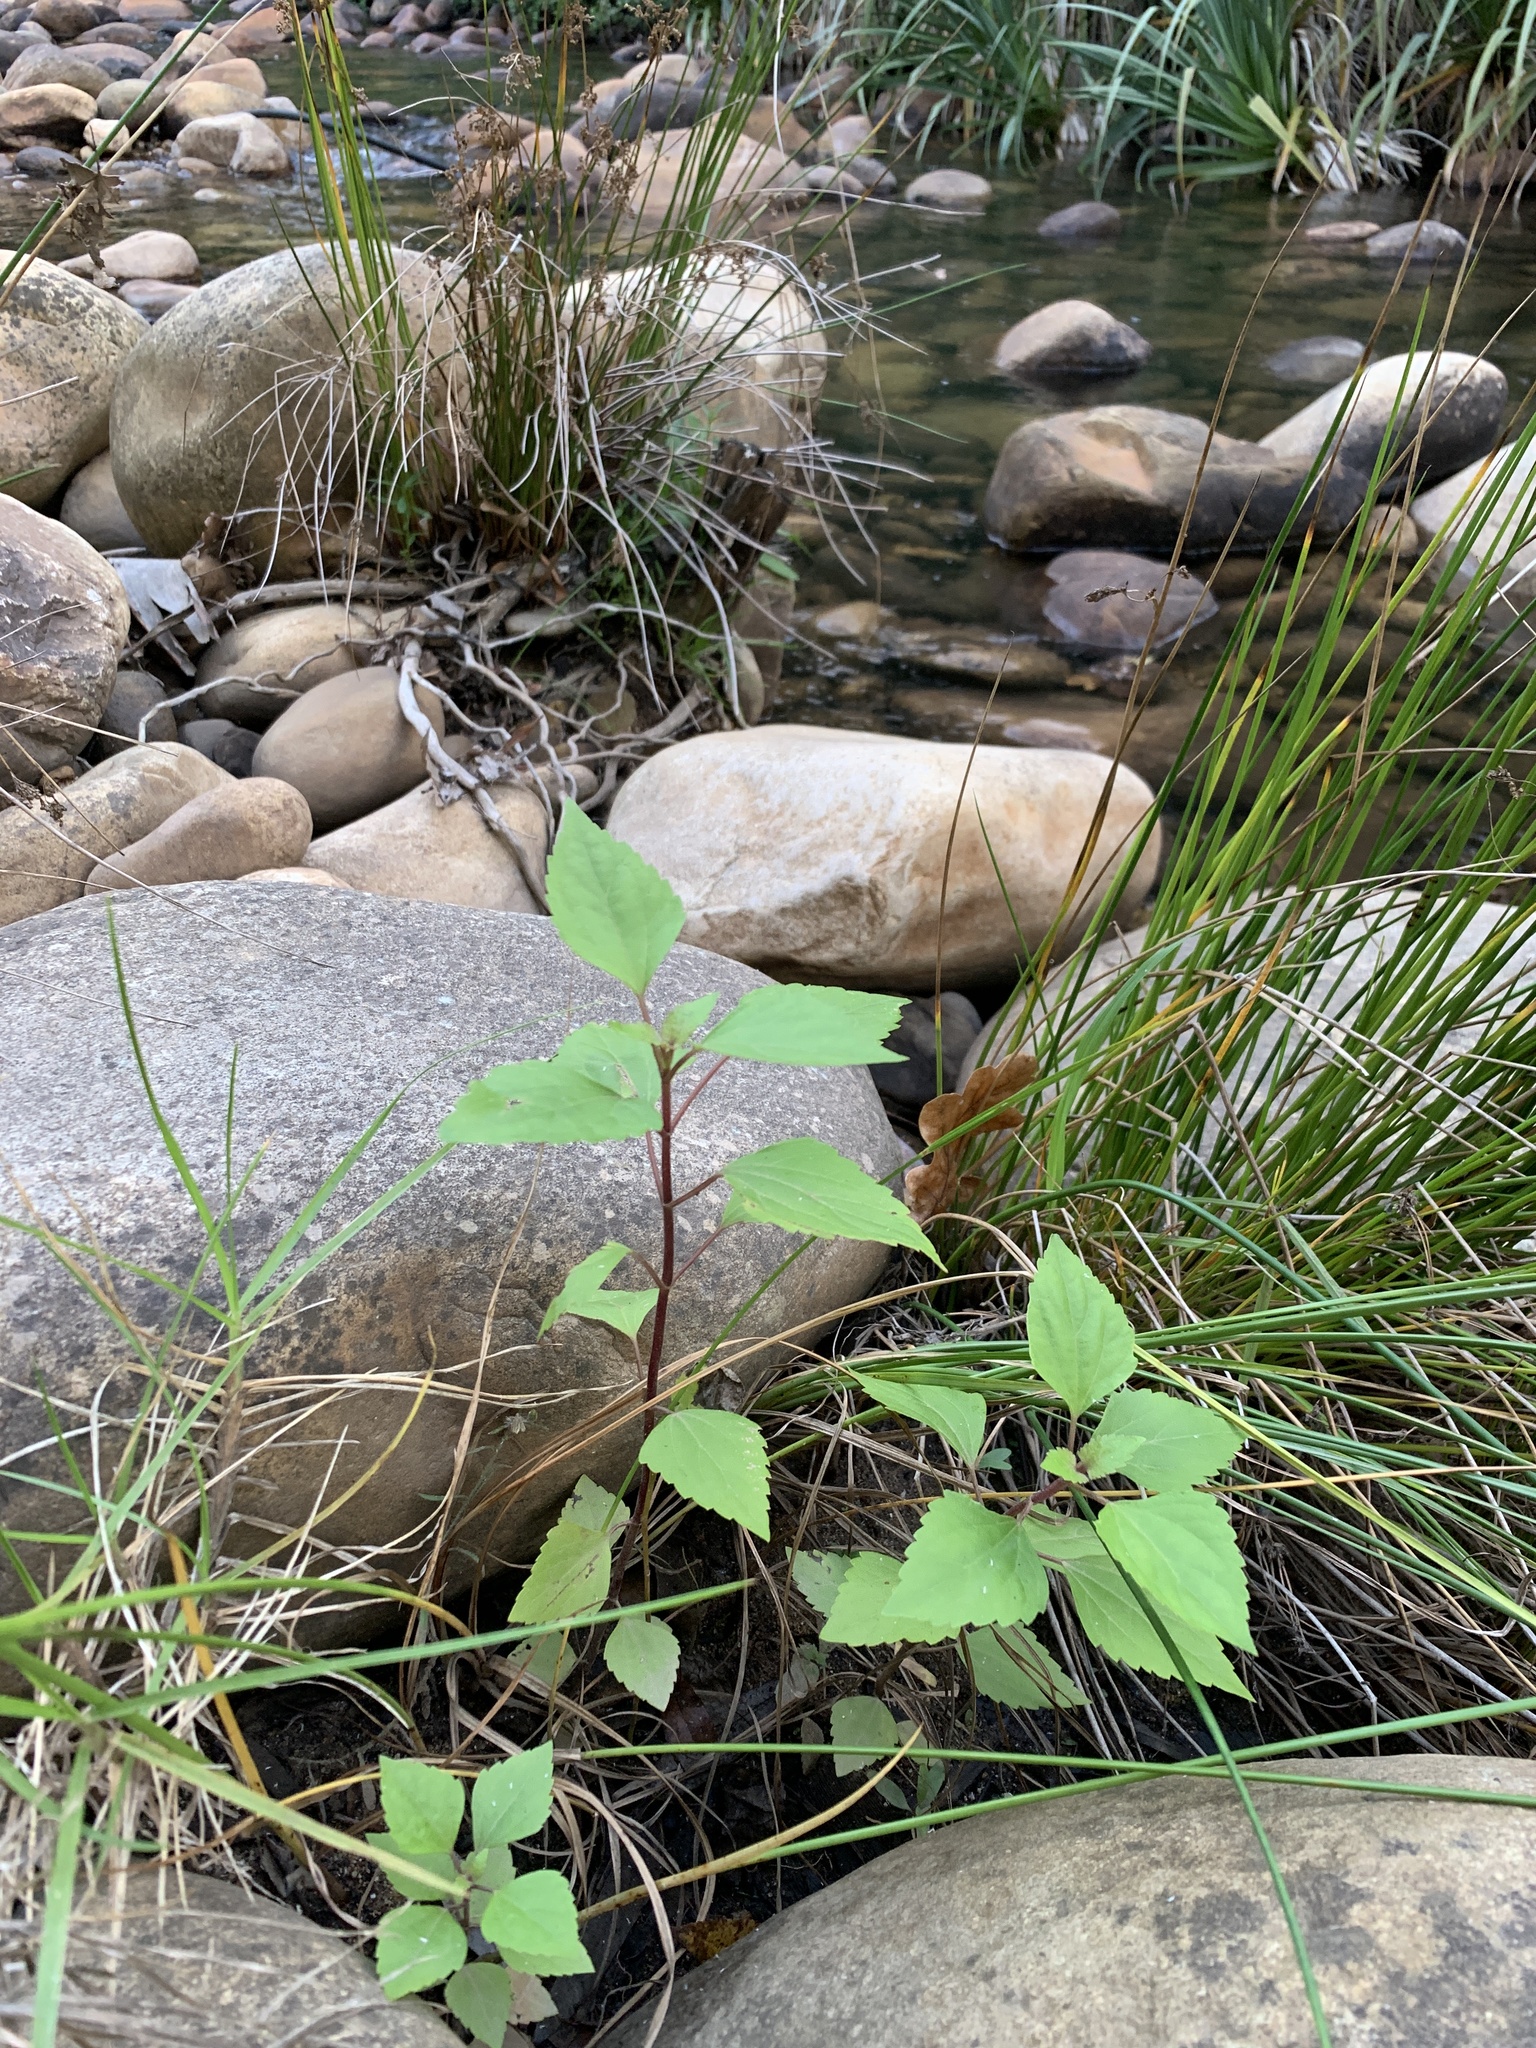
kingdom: Plantae
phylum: Tracheophyta
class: Magnoliopsida
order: Asterales
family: Asteraceae
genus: Ageratina
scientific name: Ageratina adenophora
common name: Sticky snakeroot
